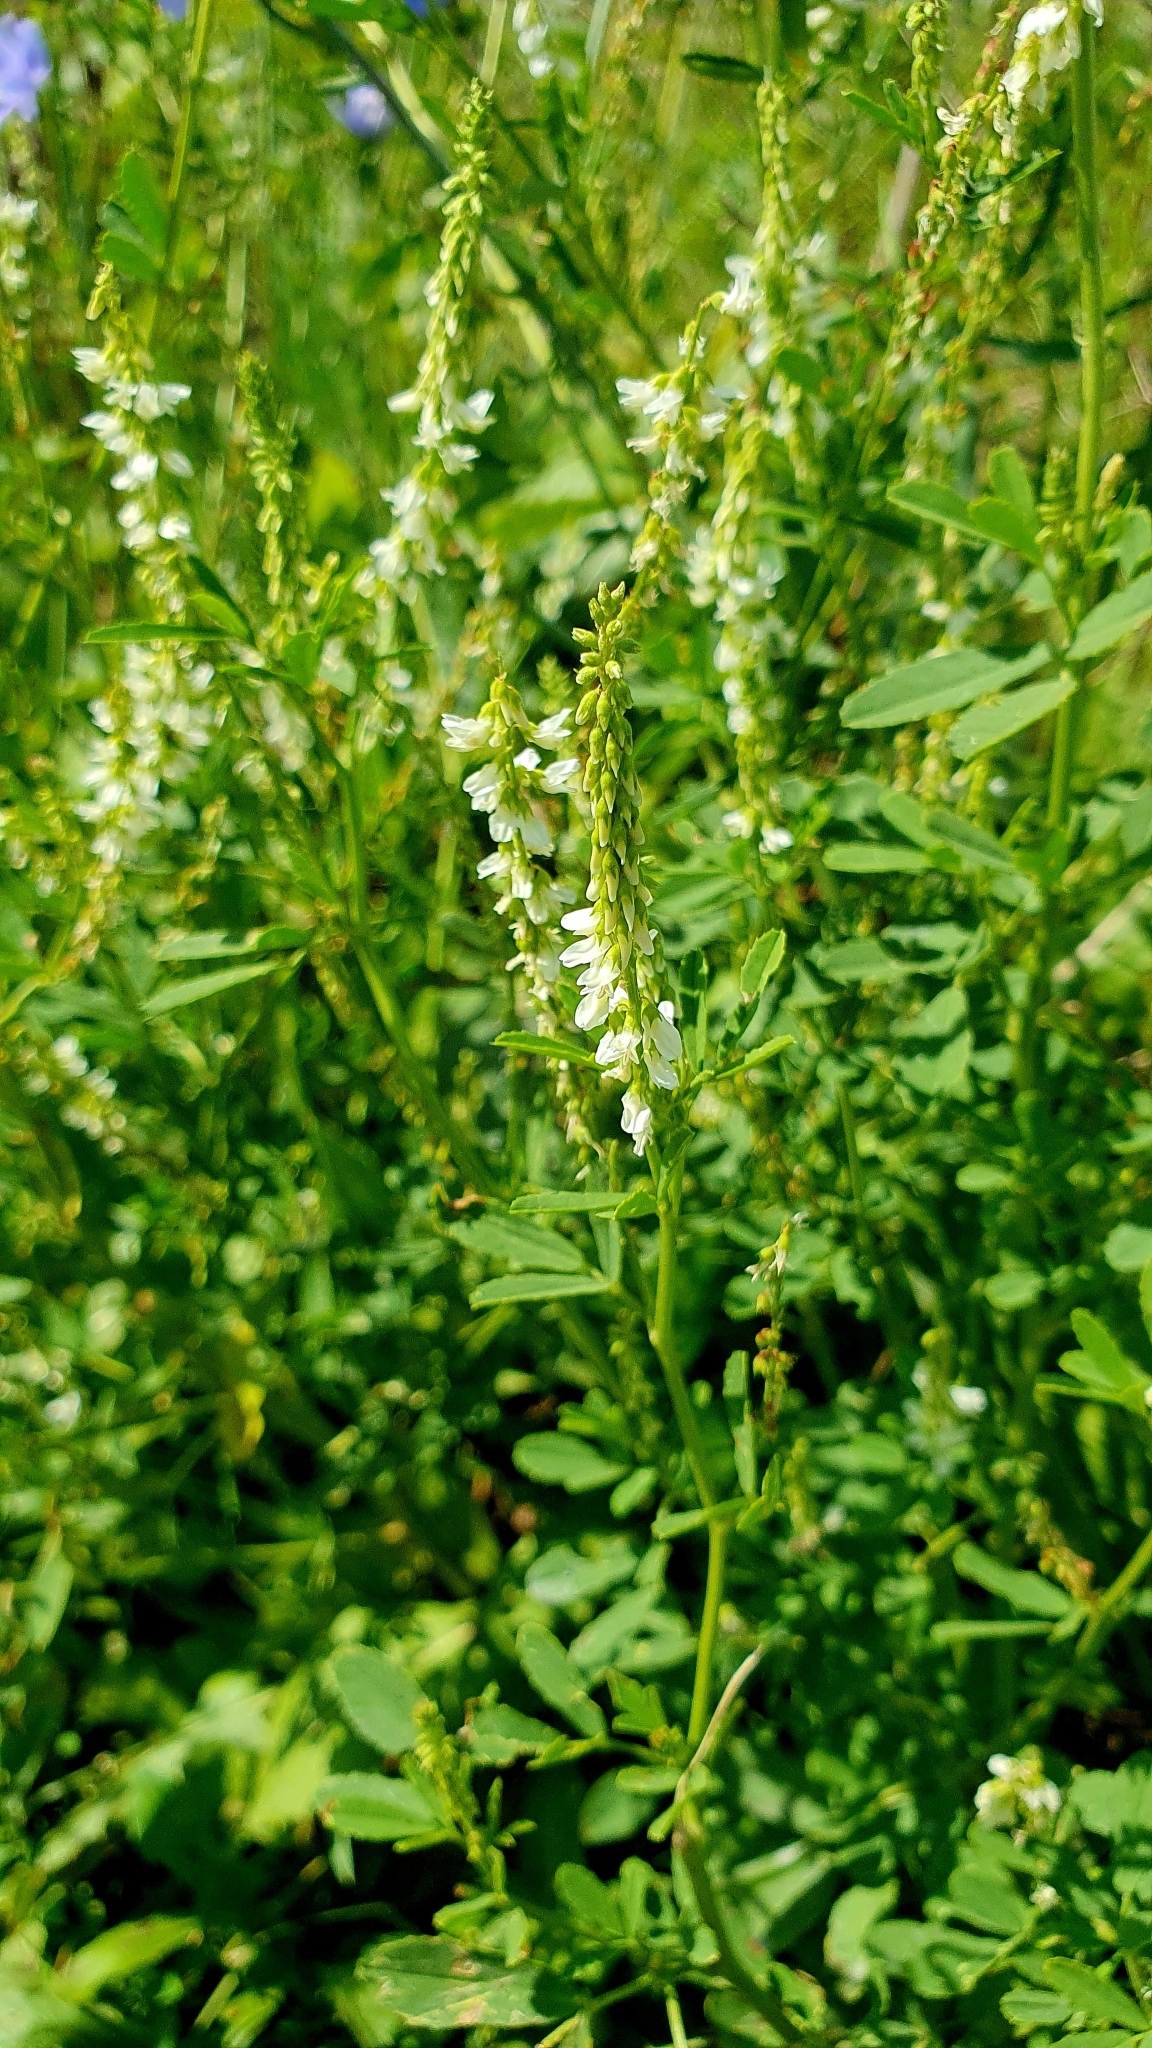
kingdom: Plantae
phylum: Tracheophyta
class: Magnoliopsida
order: Fabales
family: Fabaceae
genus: Melilotus
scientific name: Melilotus albus
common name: White melilot
